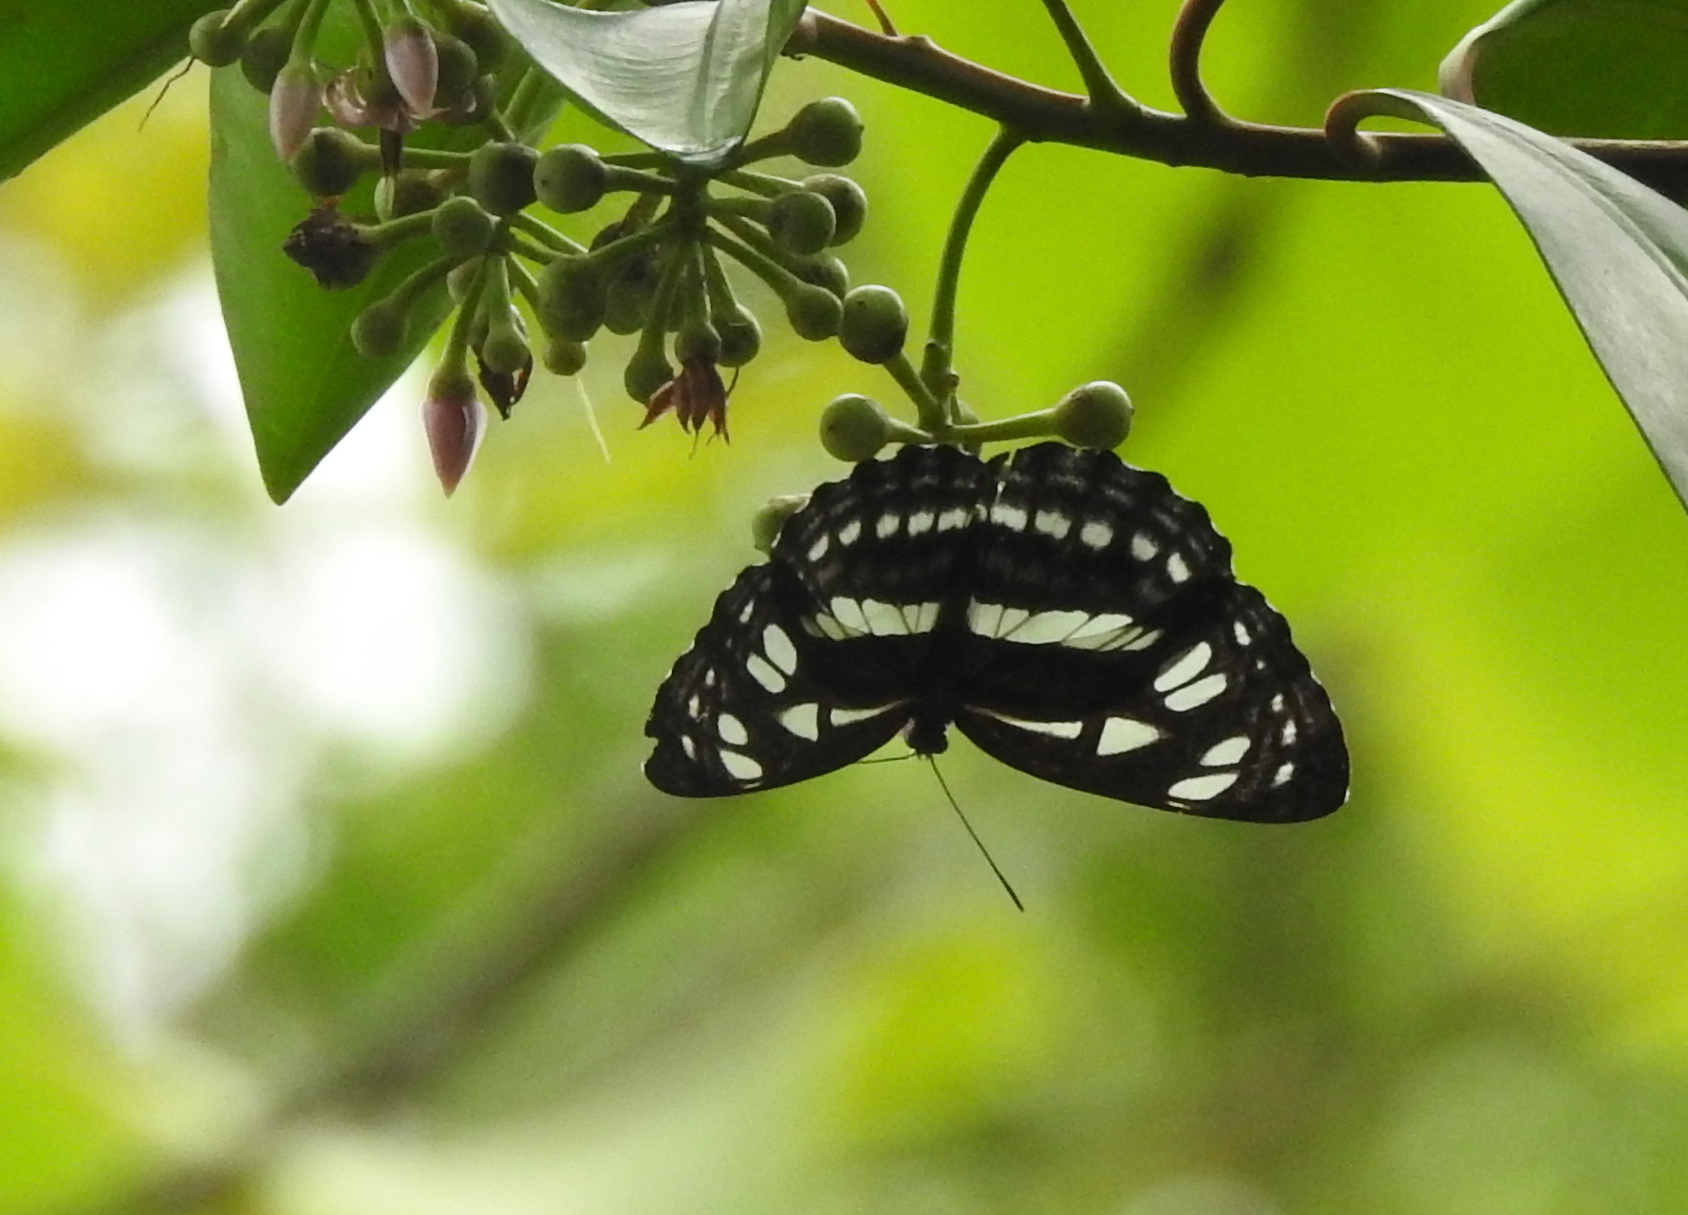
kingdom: Animalia
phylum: Arthropoda
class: Insecta
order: Lepidoptera
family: Nymphalidae
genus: Phaedyma
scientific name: Phaedyma columella
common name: Short banded sailer
